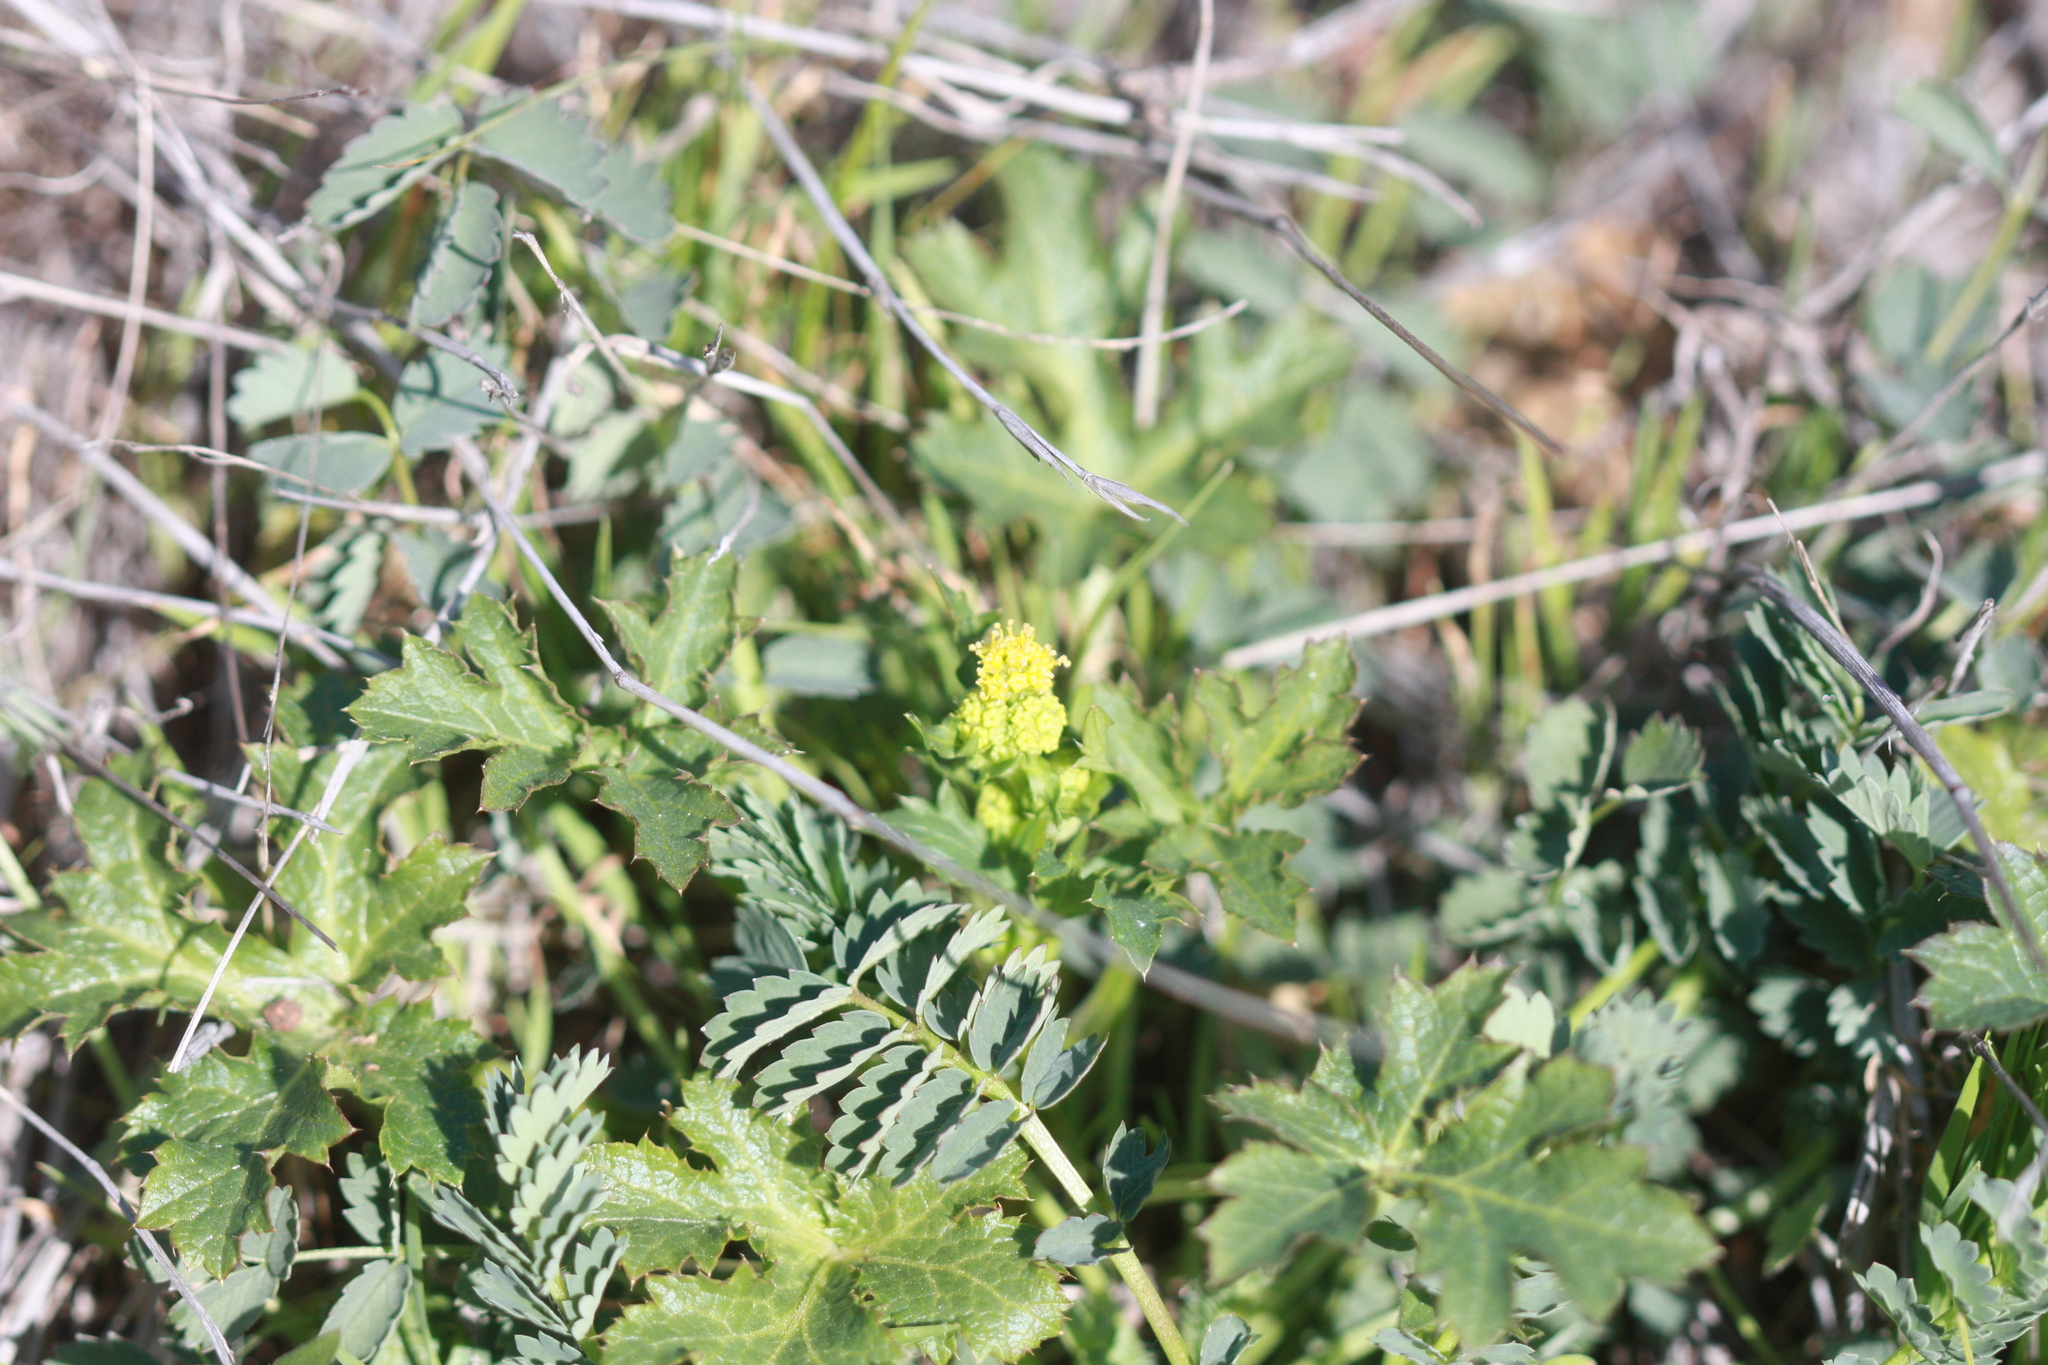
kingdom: Plantae
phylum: Tracheophyta
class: Magnoliopsida
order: Apiales
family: Apiaceae
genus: Sanicula
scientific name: Sanicula crassicaulis
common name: Western snakeroot
